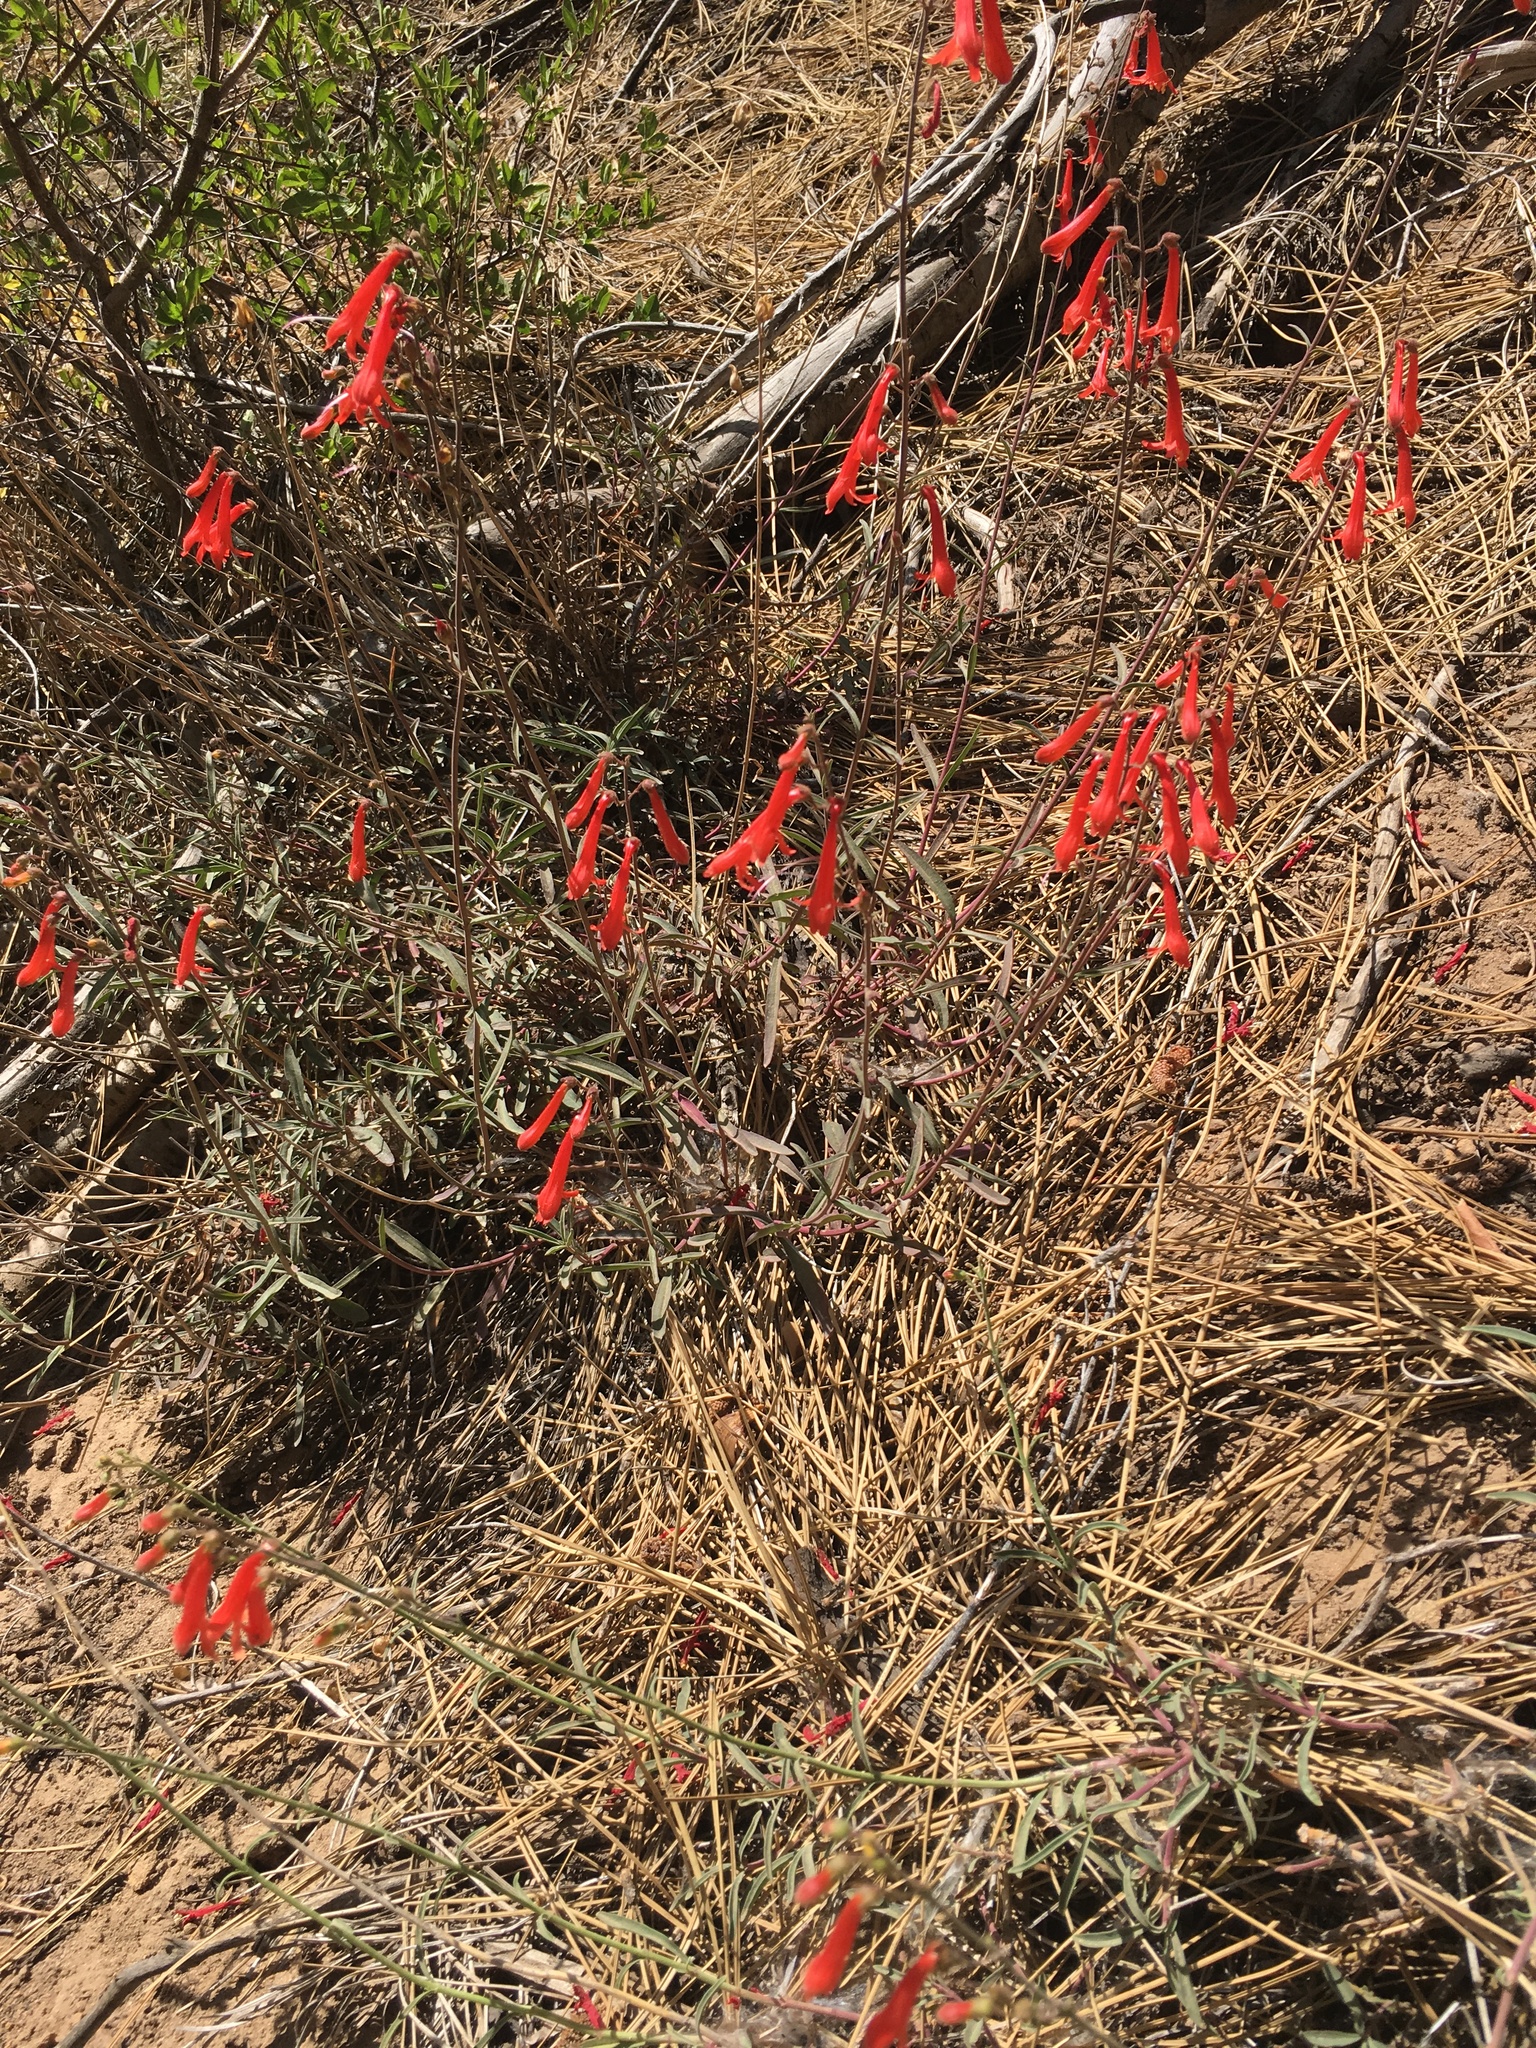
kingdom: Plantae
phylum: Tracheophyta
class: Magnoliopsida
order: Lamiales
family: Plantaginaceae
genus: Penstemon
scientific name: Penstemon rostriflorus
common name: Bridges's penstemon
